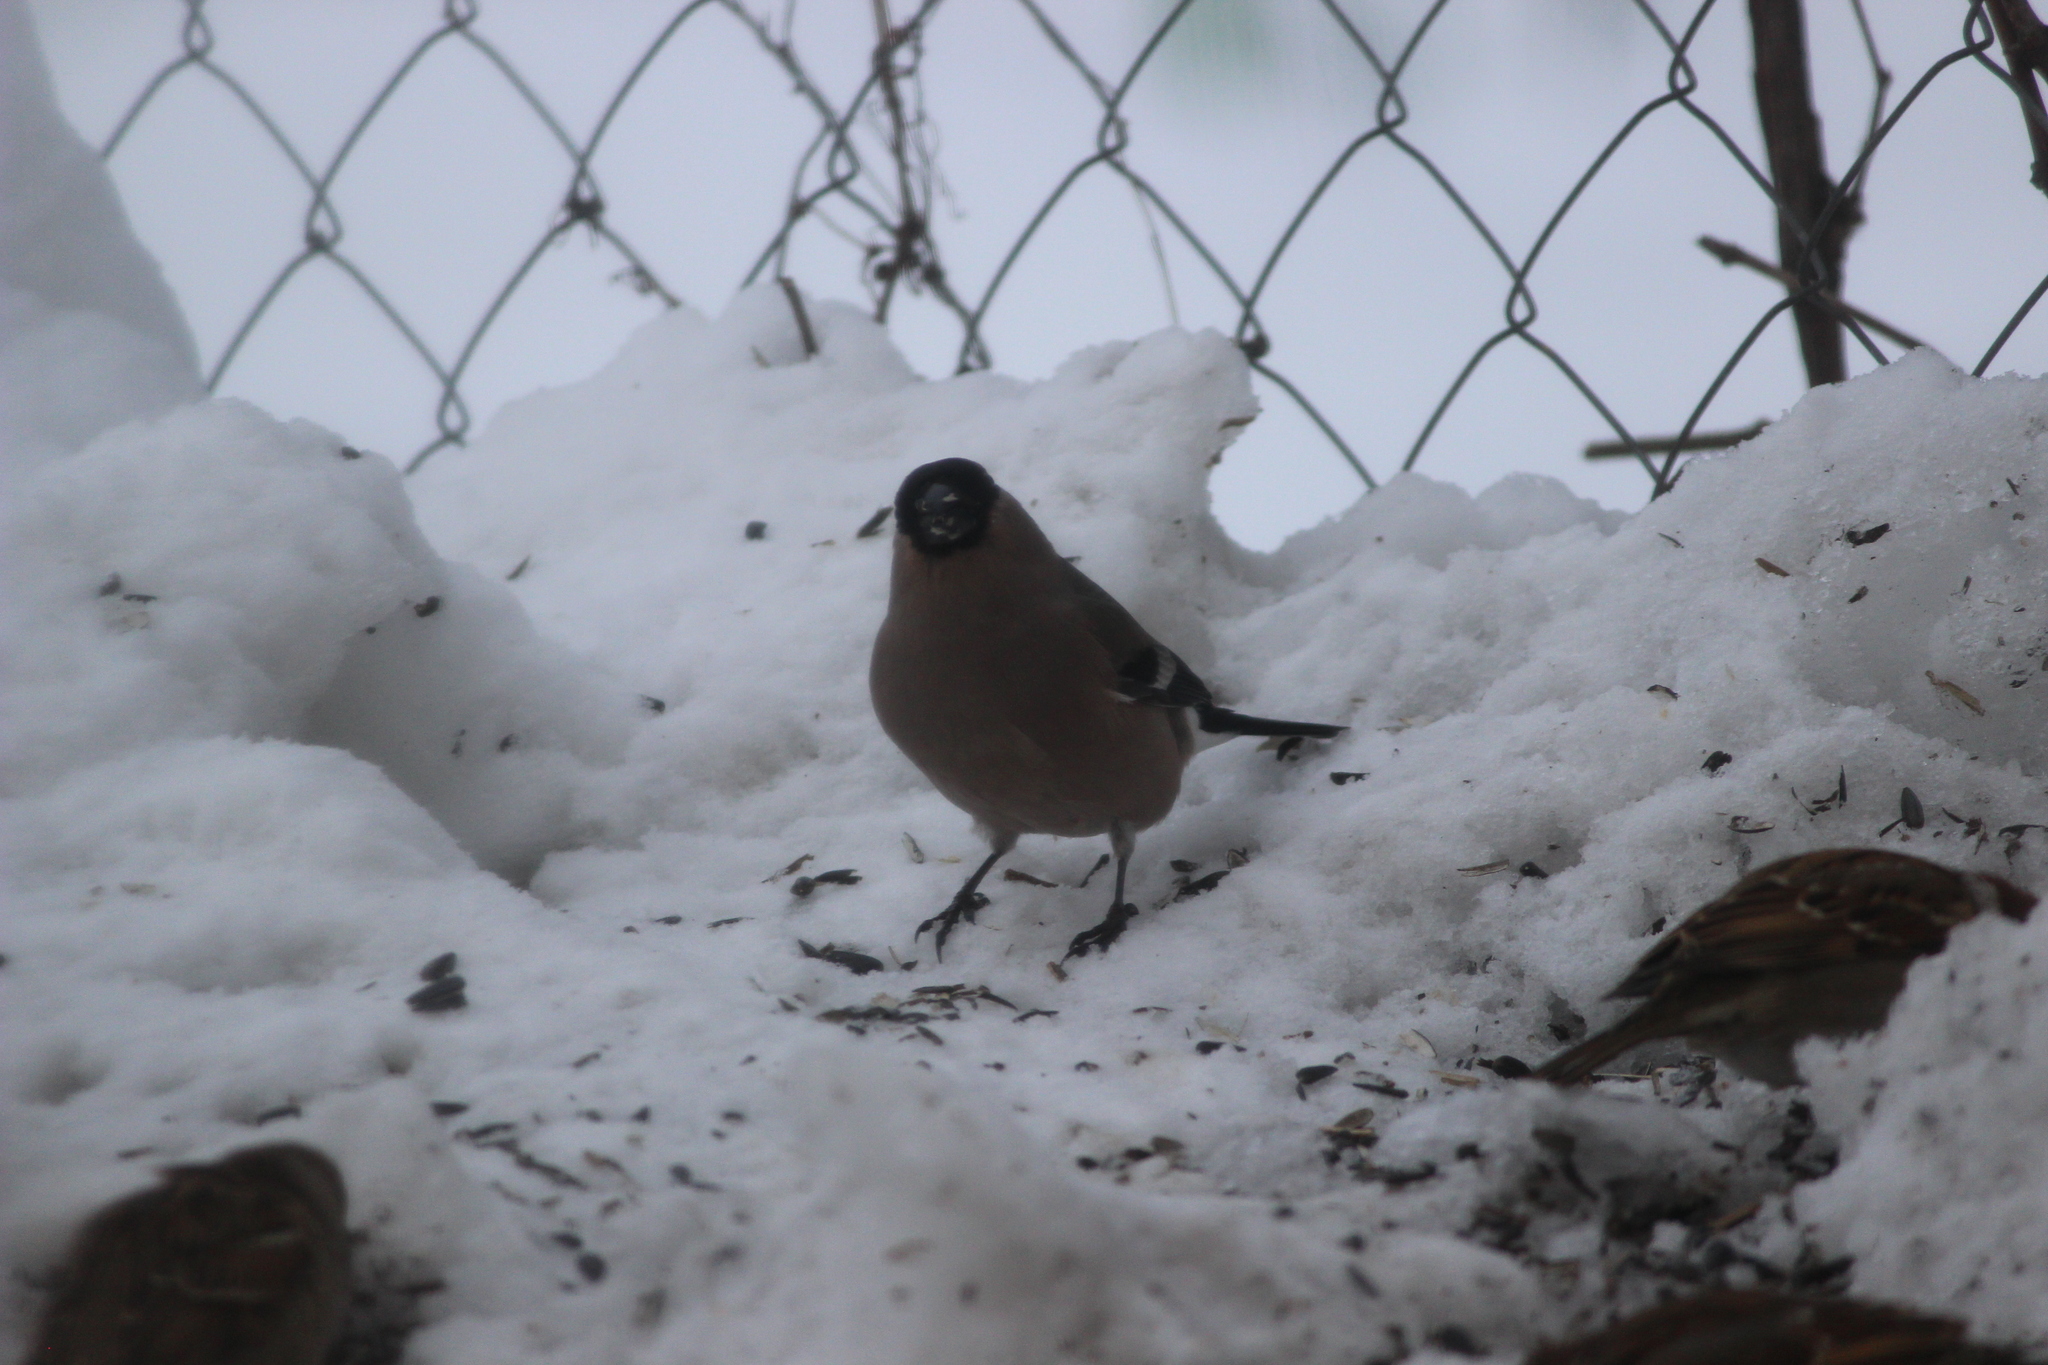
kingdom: Animalia
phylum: Chordata
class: Aves
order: Passeriformes
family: Fringillidae
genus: Pyrrhula
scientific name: Pyrrhula pyrrhula
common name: Eurasian bullfinch
